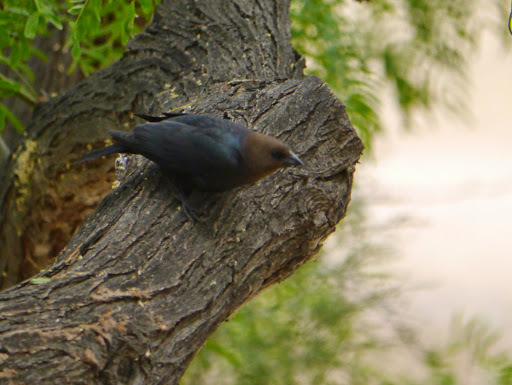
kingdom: Animalia
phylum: Chordata
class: Aves
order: Passeriformes
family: Icteridae
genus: Molothrus
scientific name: Molothrus ater
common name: Brown-headed cowbird
